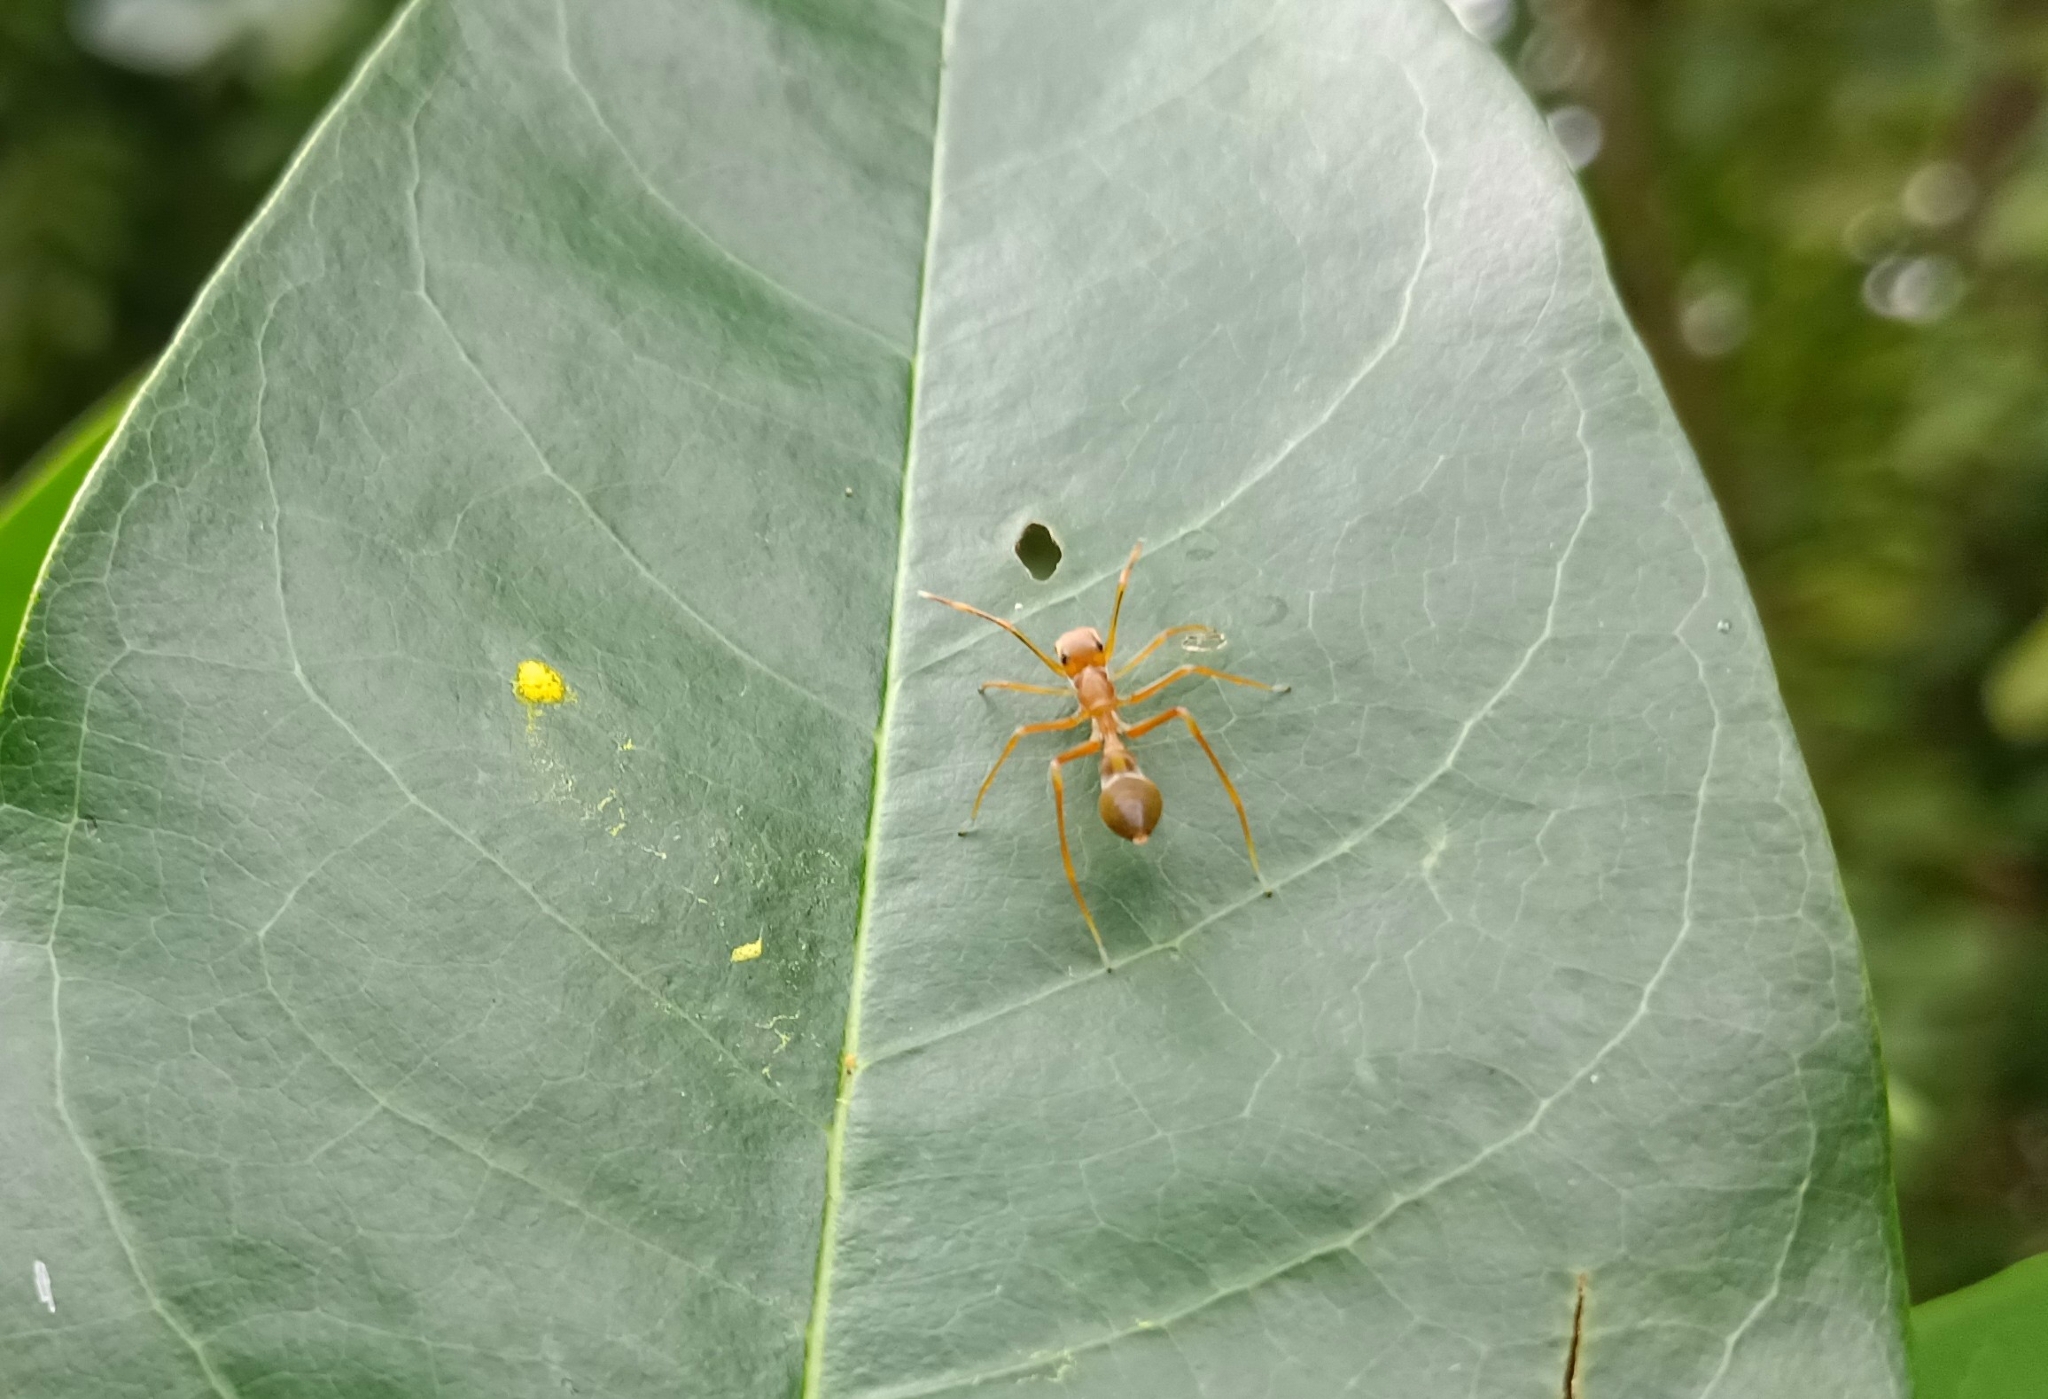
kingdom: Animalia
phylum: Arthropoda
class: Arachnida
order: Araneae
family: Salticidae
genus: Myrmaplata
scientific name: Myrmaplata plataleoides
